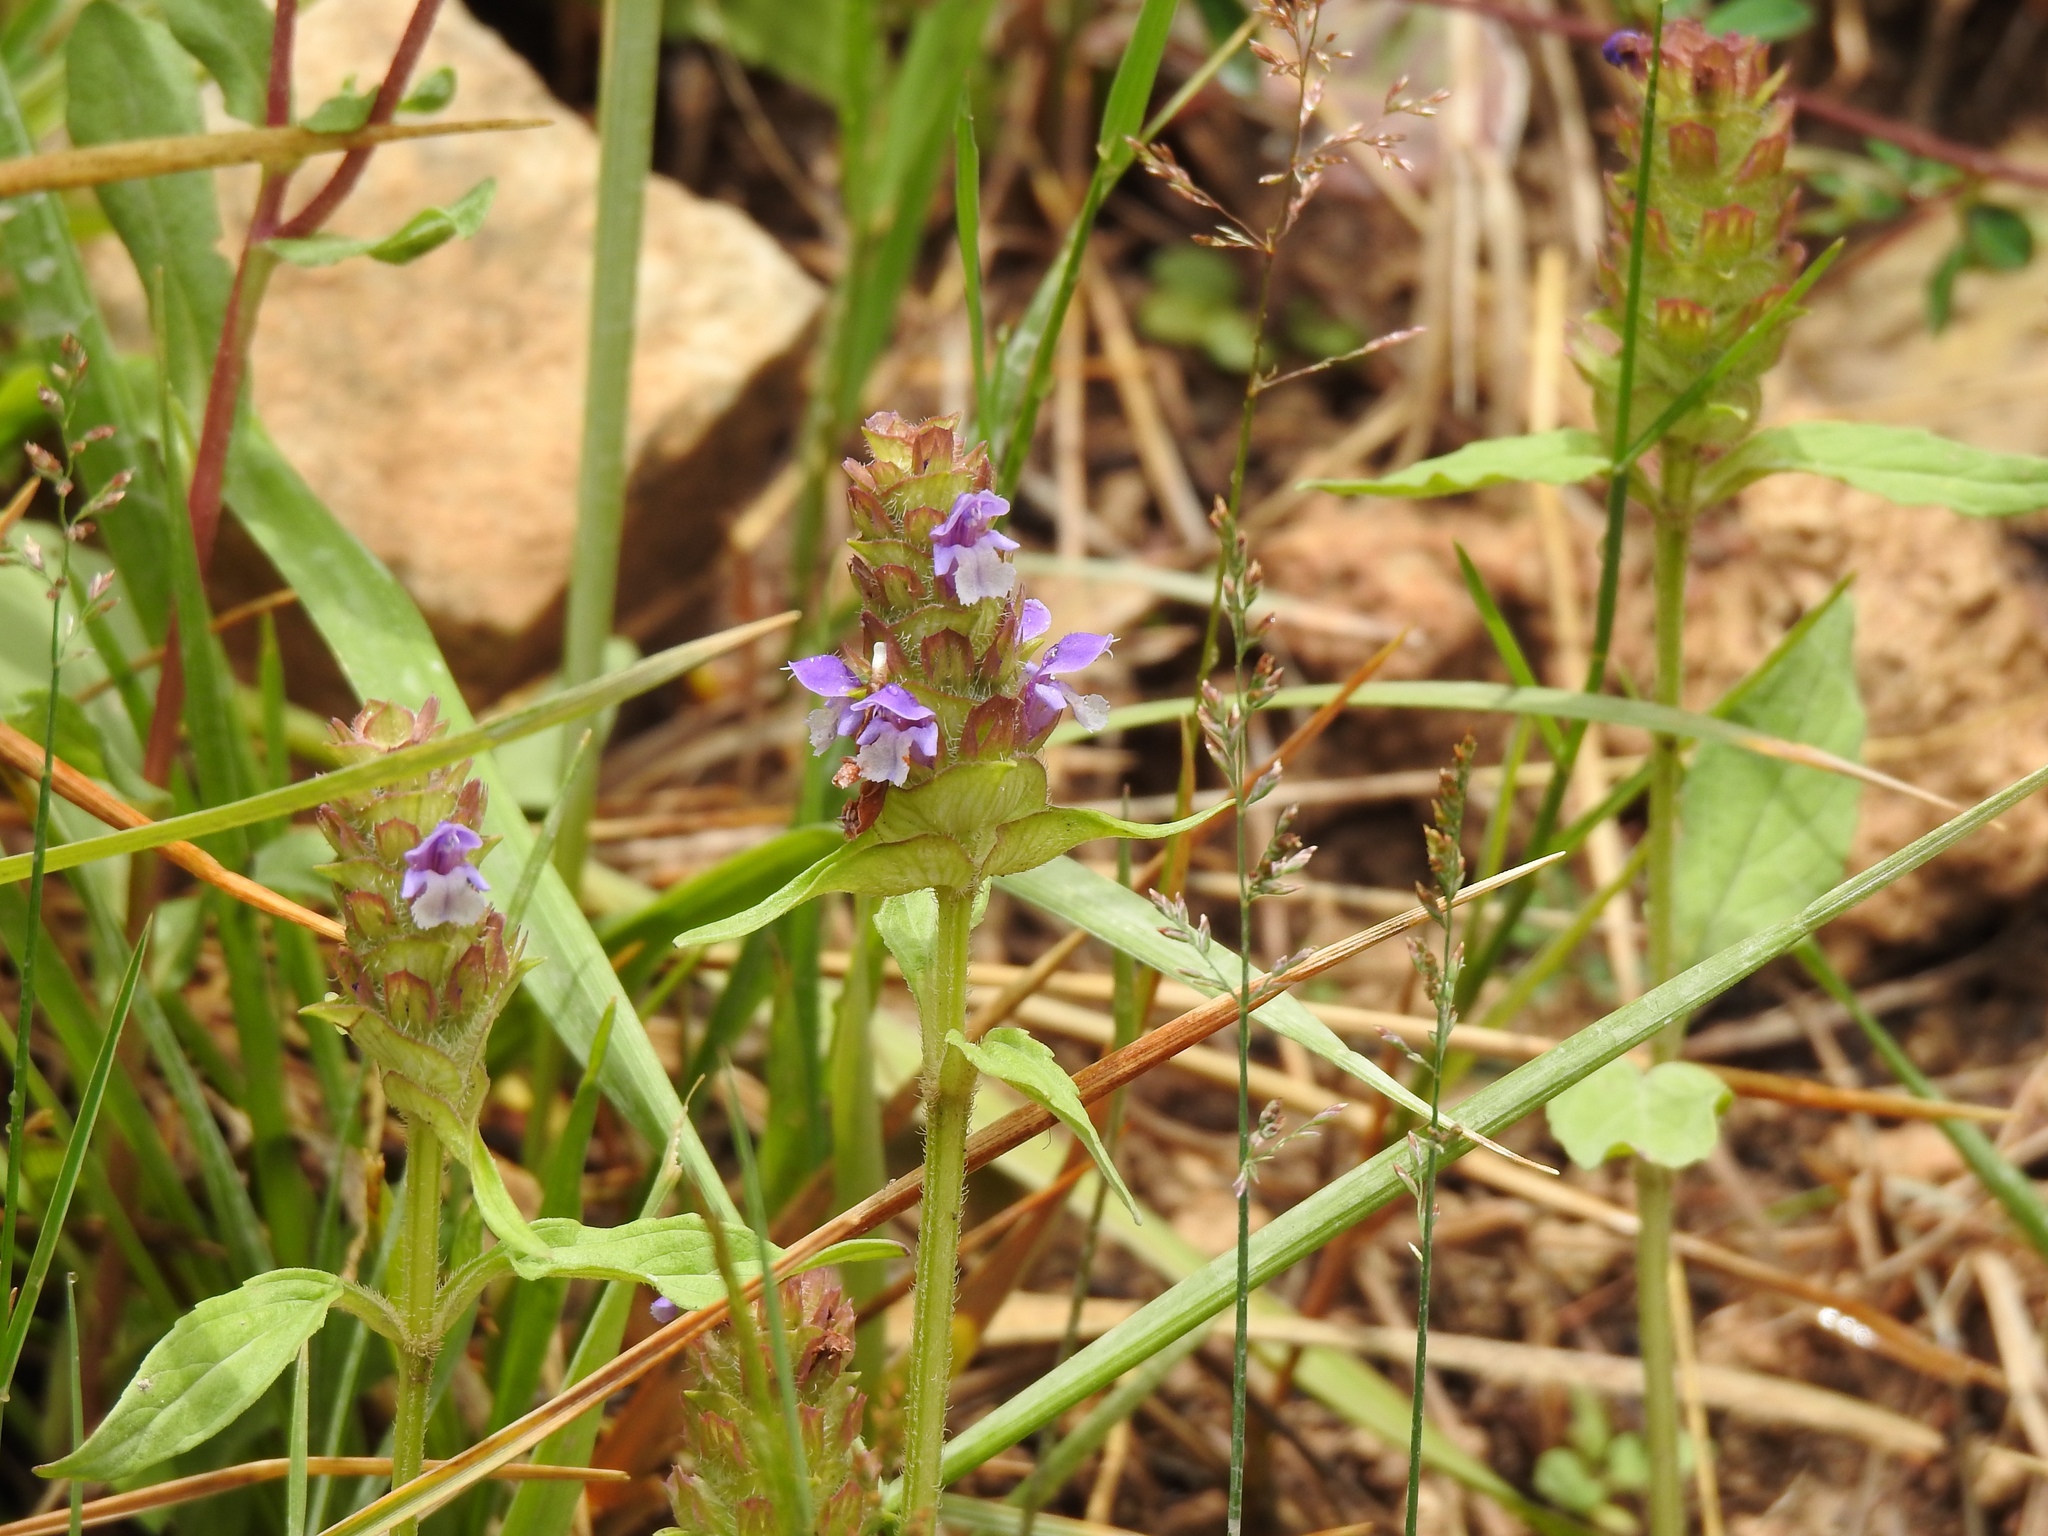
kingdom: Plantae
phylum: Tracheophyta
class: Magnoliopsida
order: Lamiales
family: Lamiaceae
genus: Prunella
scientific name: Prunella vulgaris
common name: Heal-all
